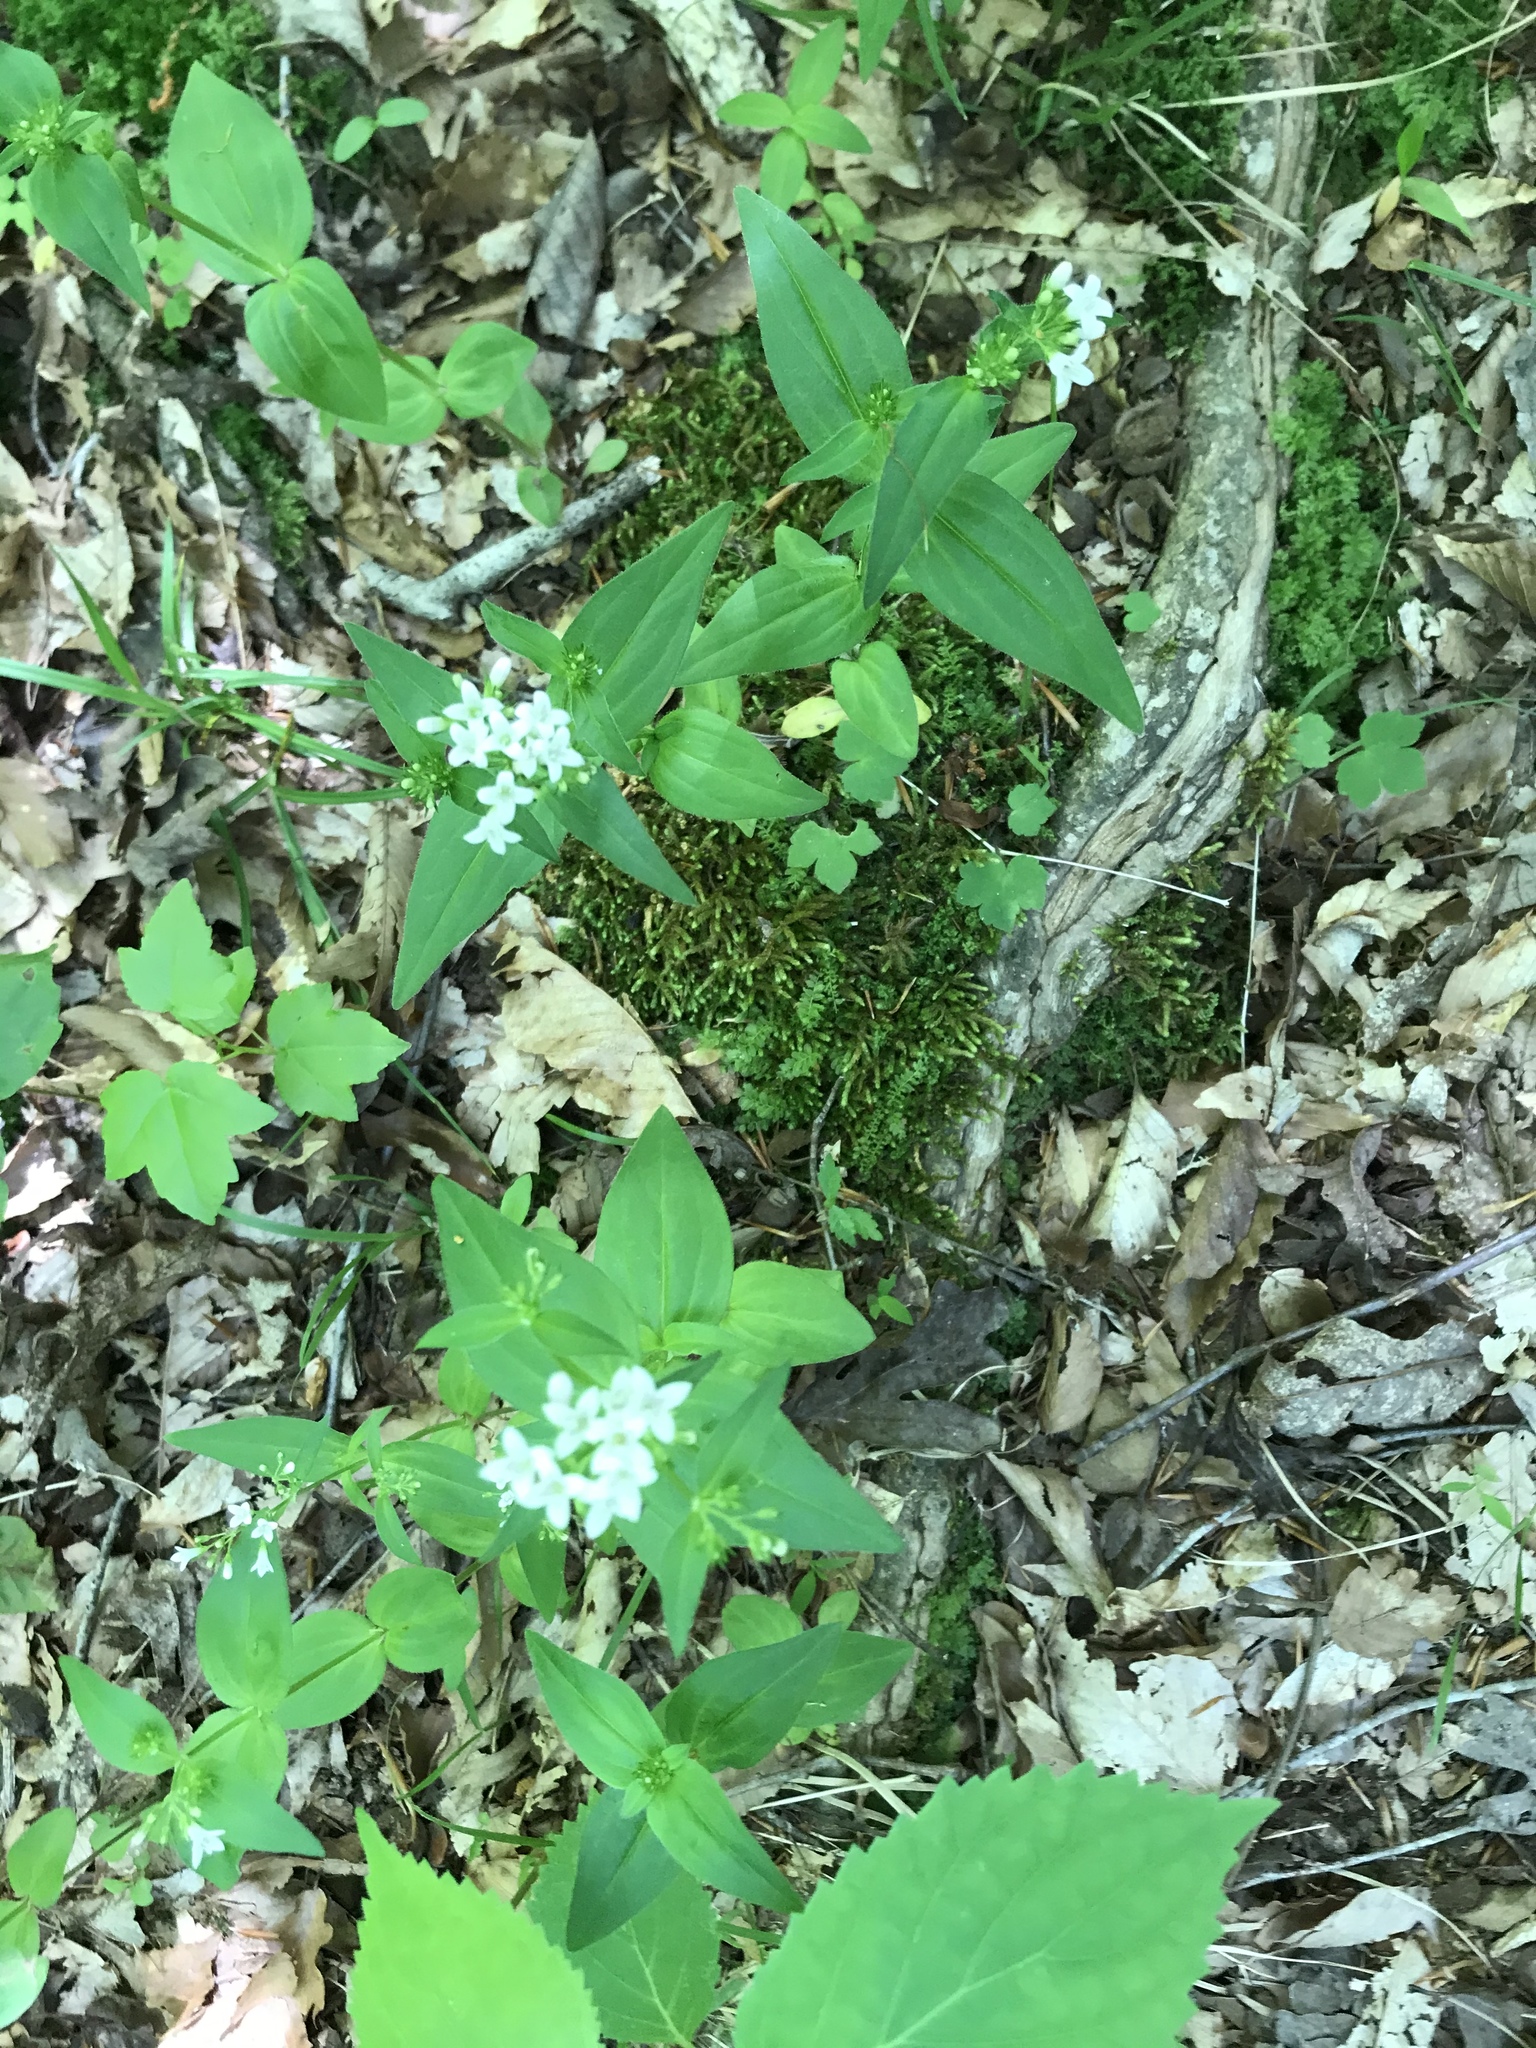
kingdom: Plantae
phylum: Tracheophyta
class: Magnoliopsida
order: Gentianales
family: Rubiaceae
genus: Houstonia
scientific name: Houstonia purpurea
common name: Summer bluet
